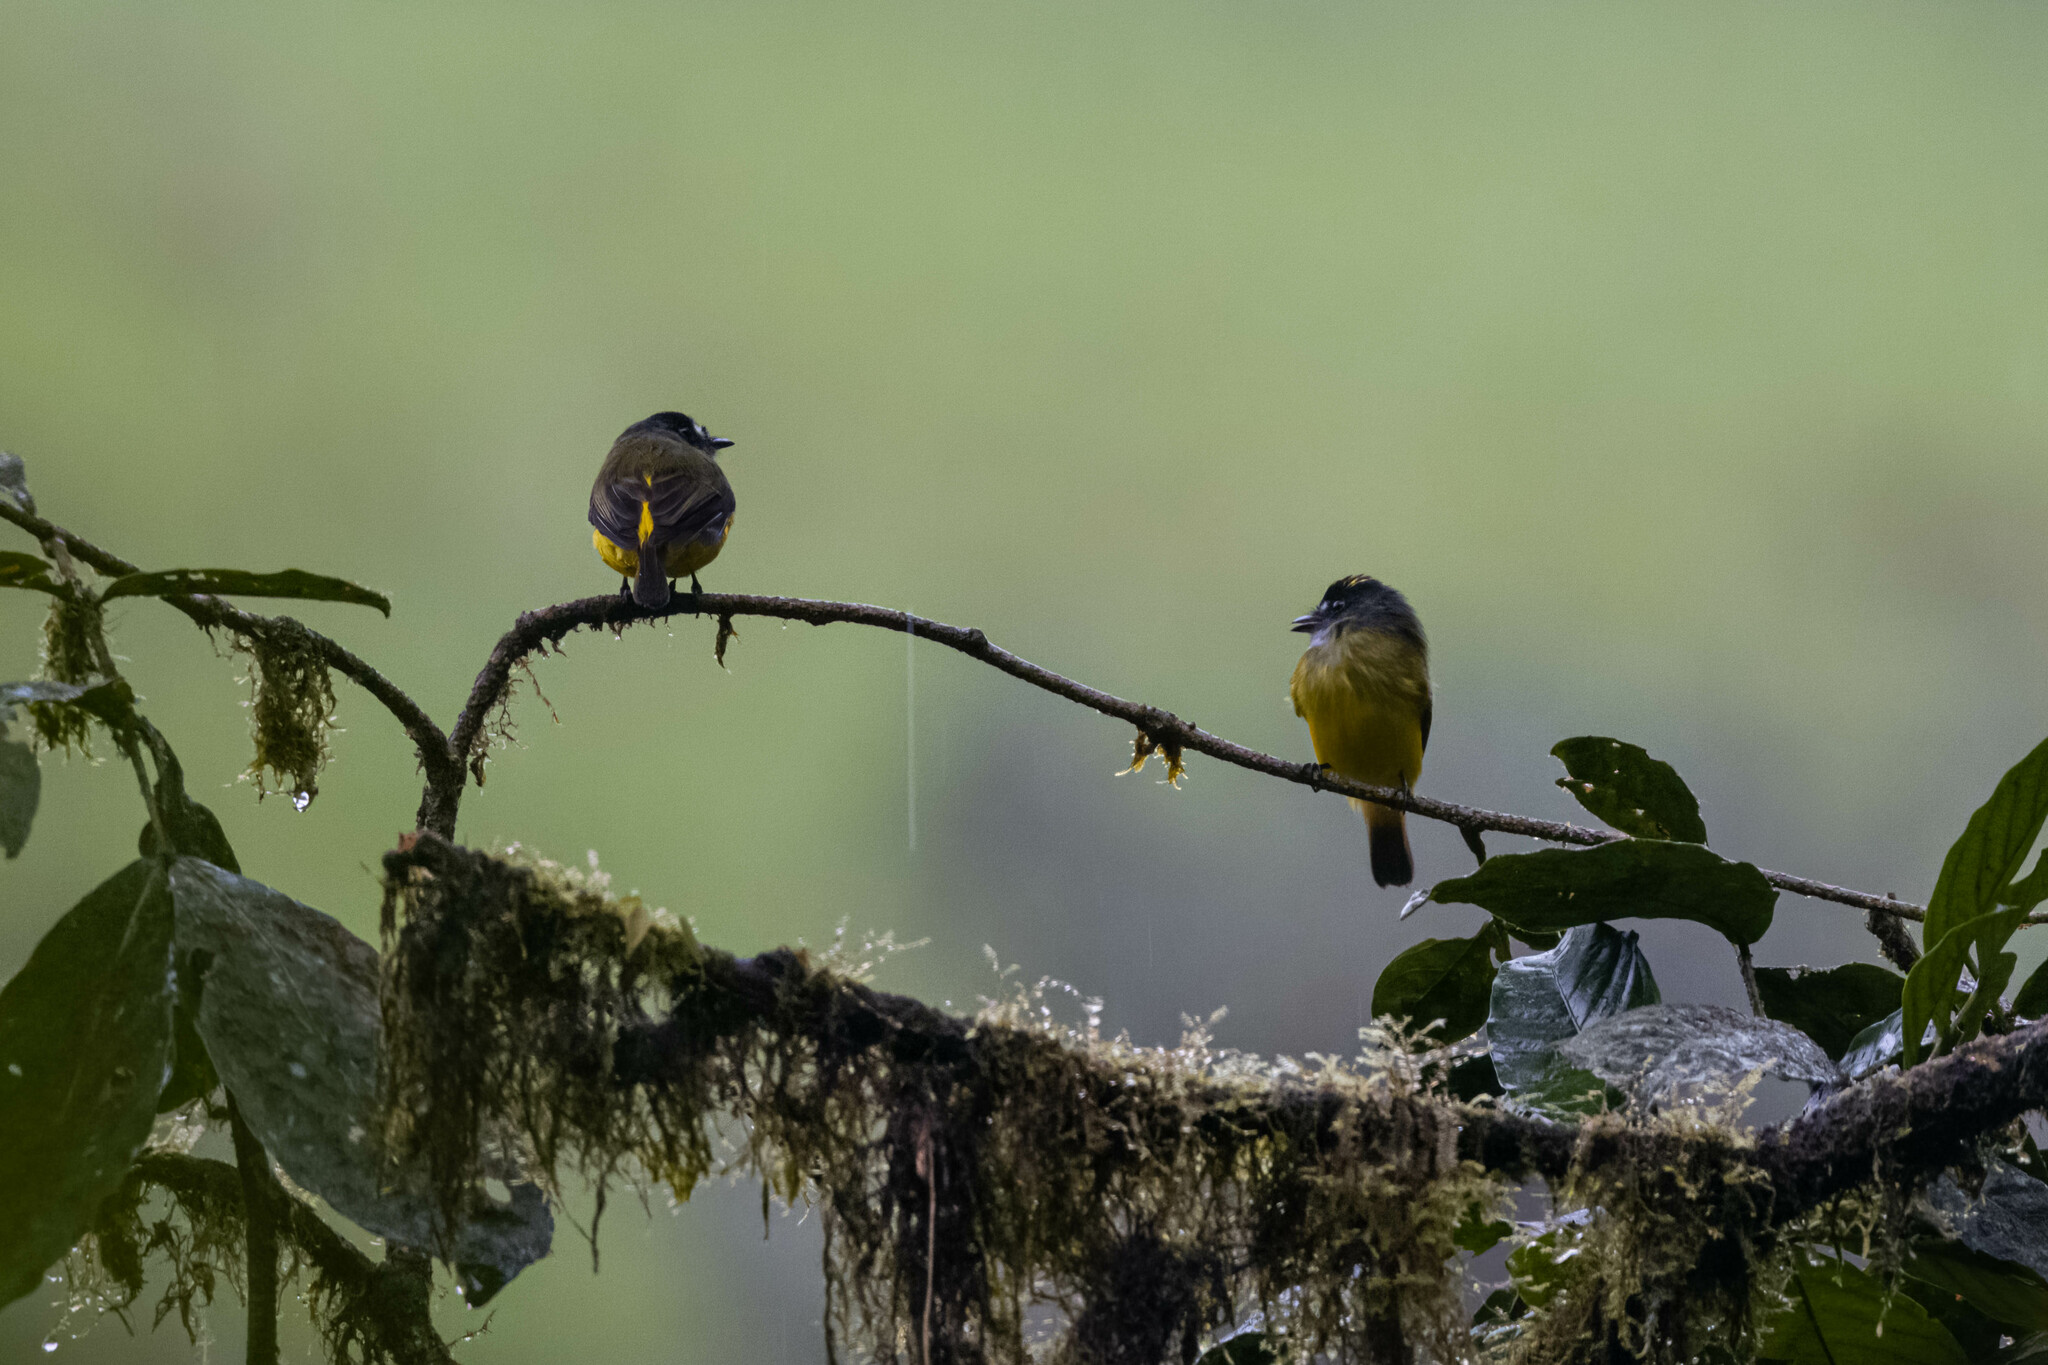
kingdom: Animalia
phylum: Chordata
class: Aves
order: Passeriformes
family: Tyrannidae
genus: Myiotriccus
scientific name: Myiotriccus ornatus
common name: Ornate flycatcher
